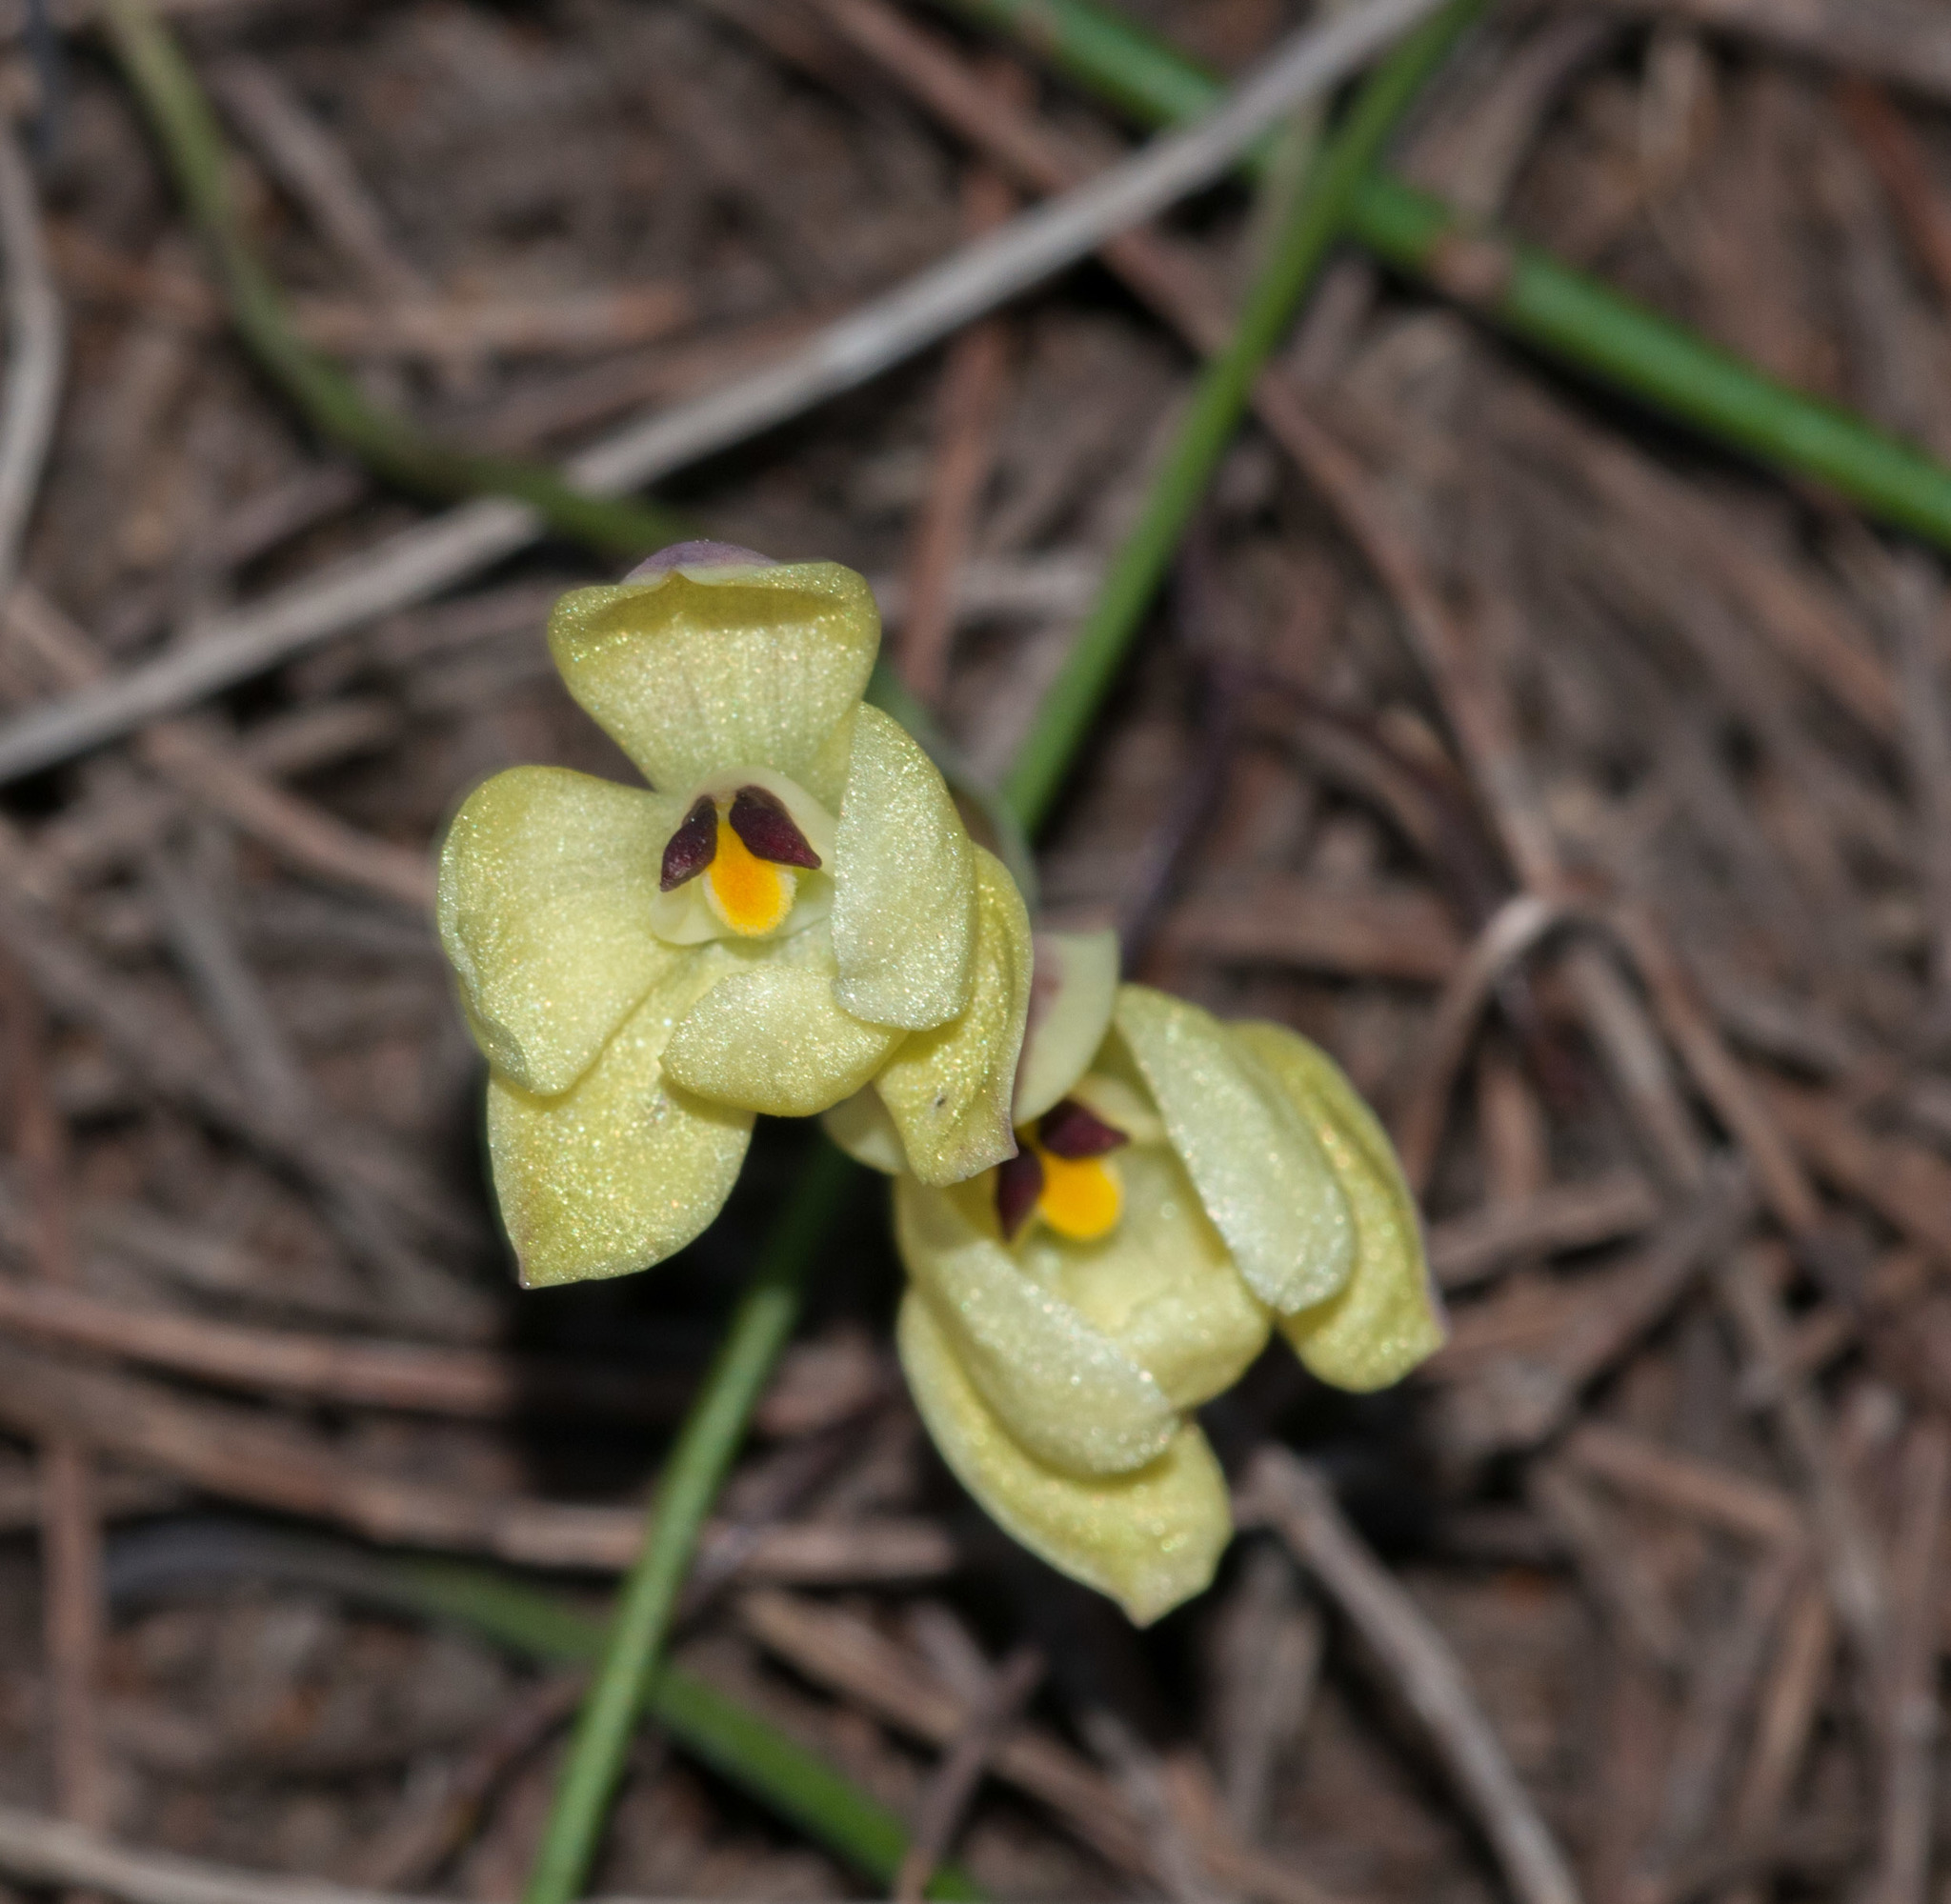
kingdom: Plantae
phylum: Tracheophyta
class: Liliopsida
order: Asparagales
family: Orchidaceae
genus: Thelymitra
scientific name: Thelymitra antennifera
